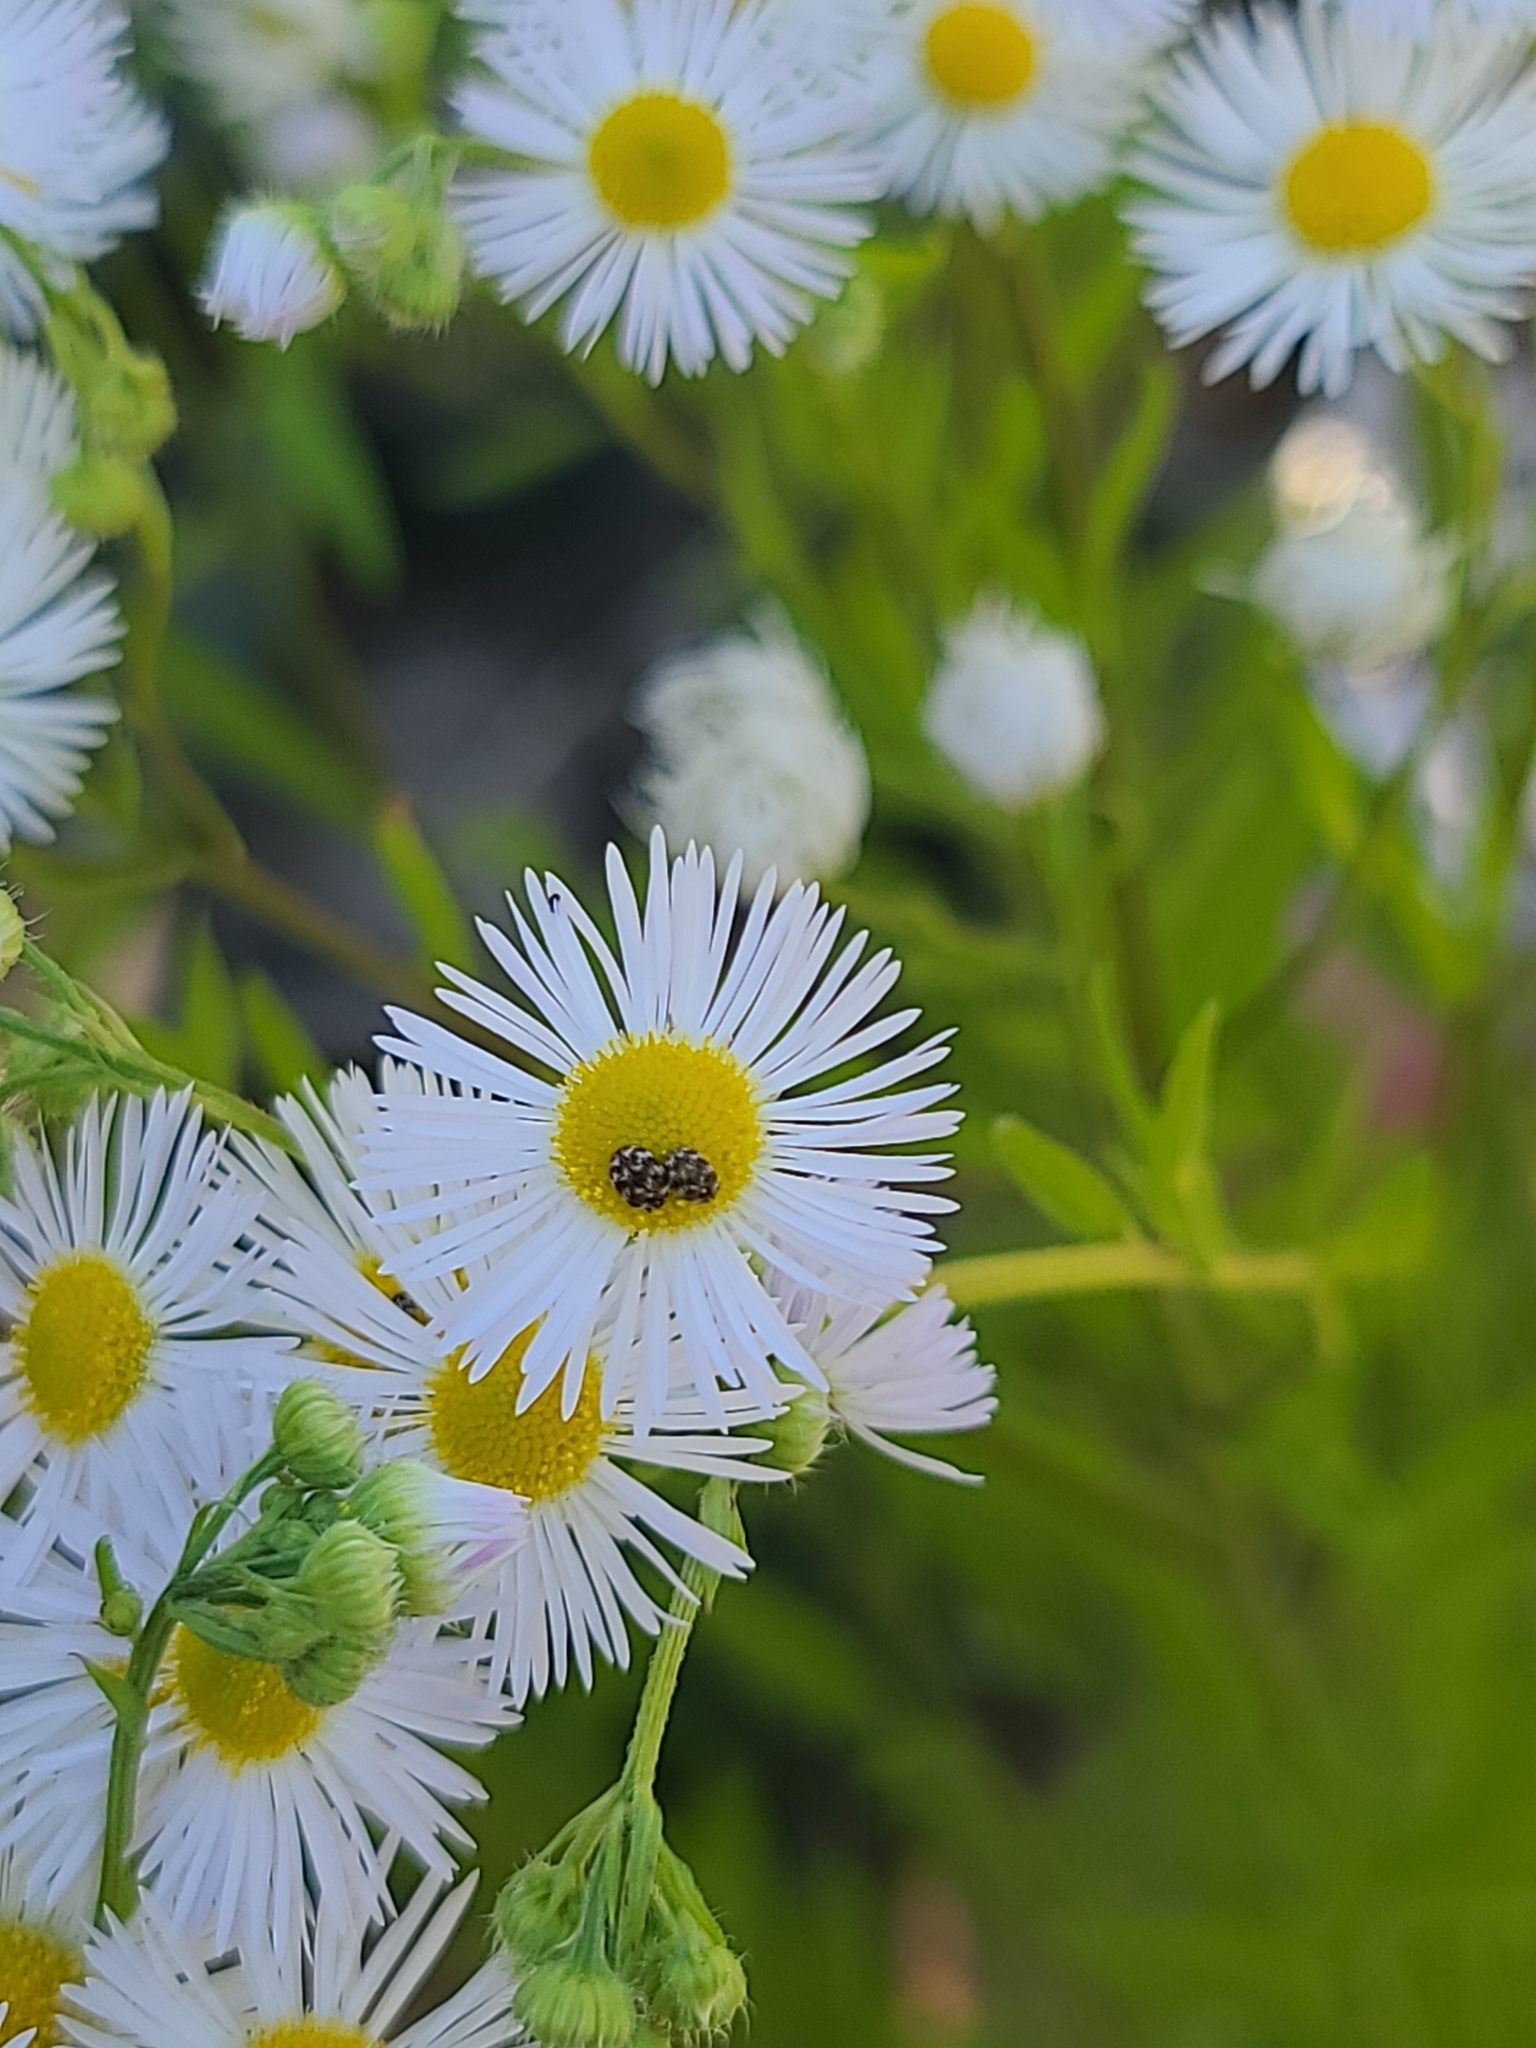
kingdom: Animalia
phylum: Arthropoda
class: Insecta
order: Coleoptera
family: Dermestidae
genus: Anthrenus
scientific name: Anthrenus verbasci
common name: Varied carpet beetle
